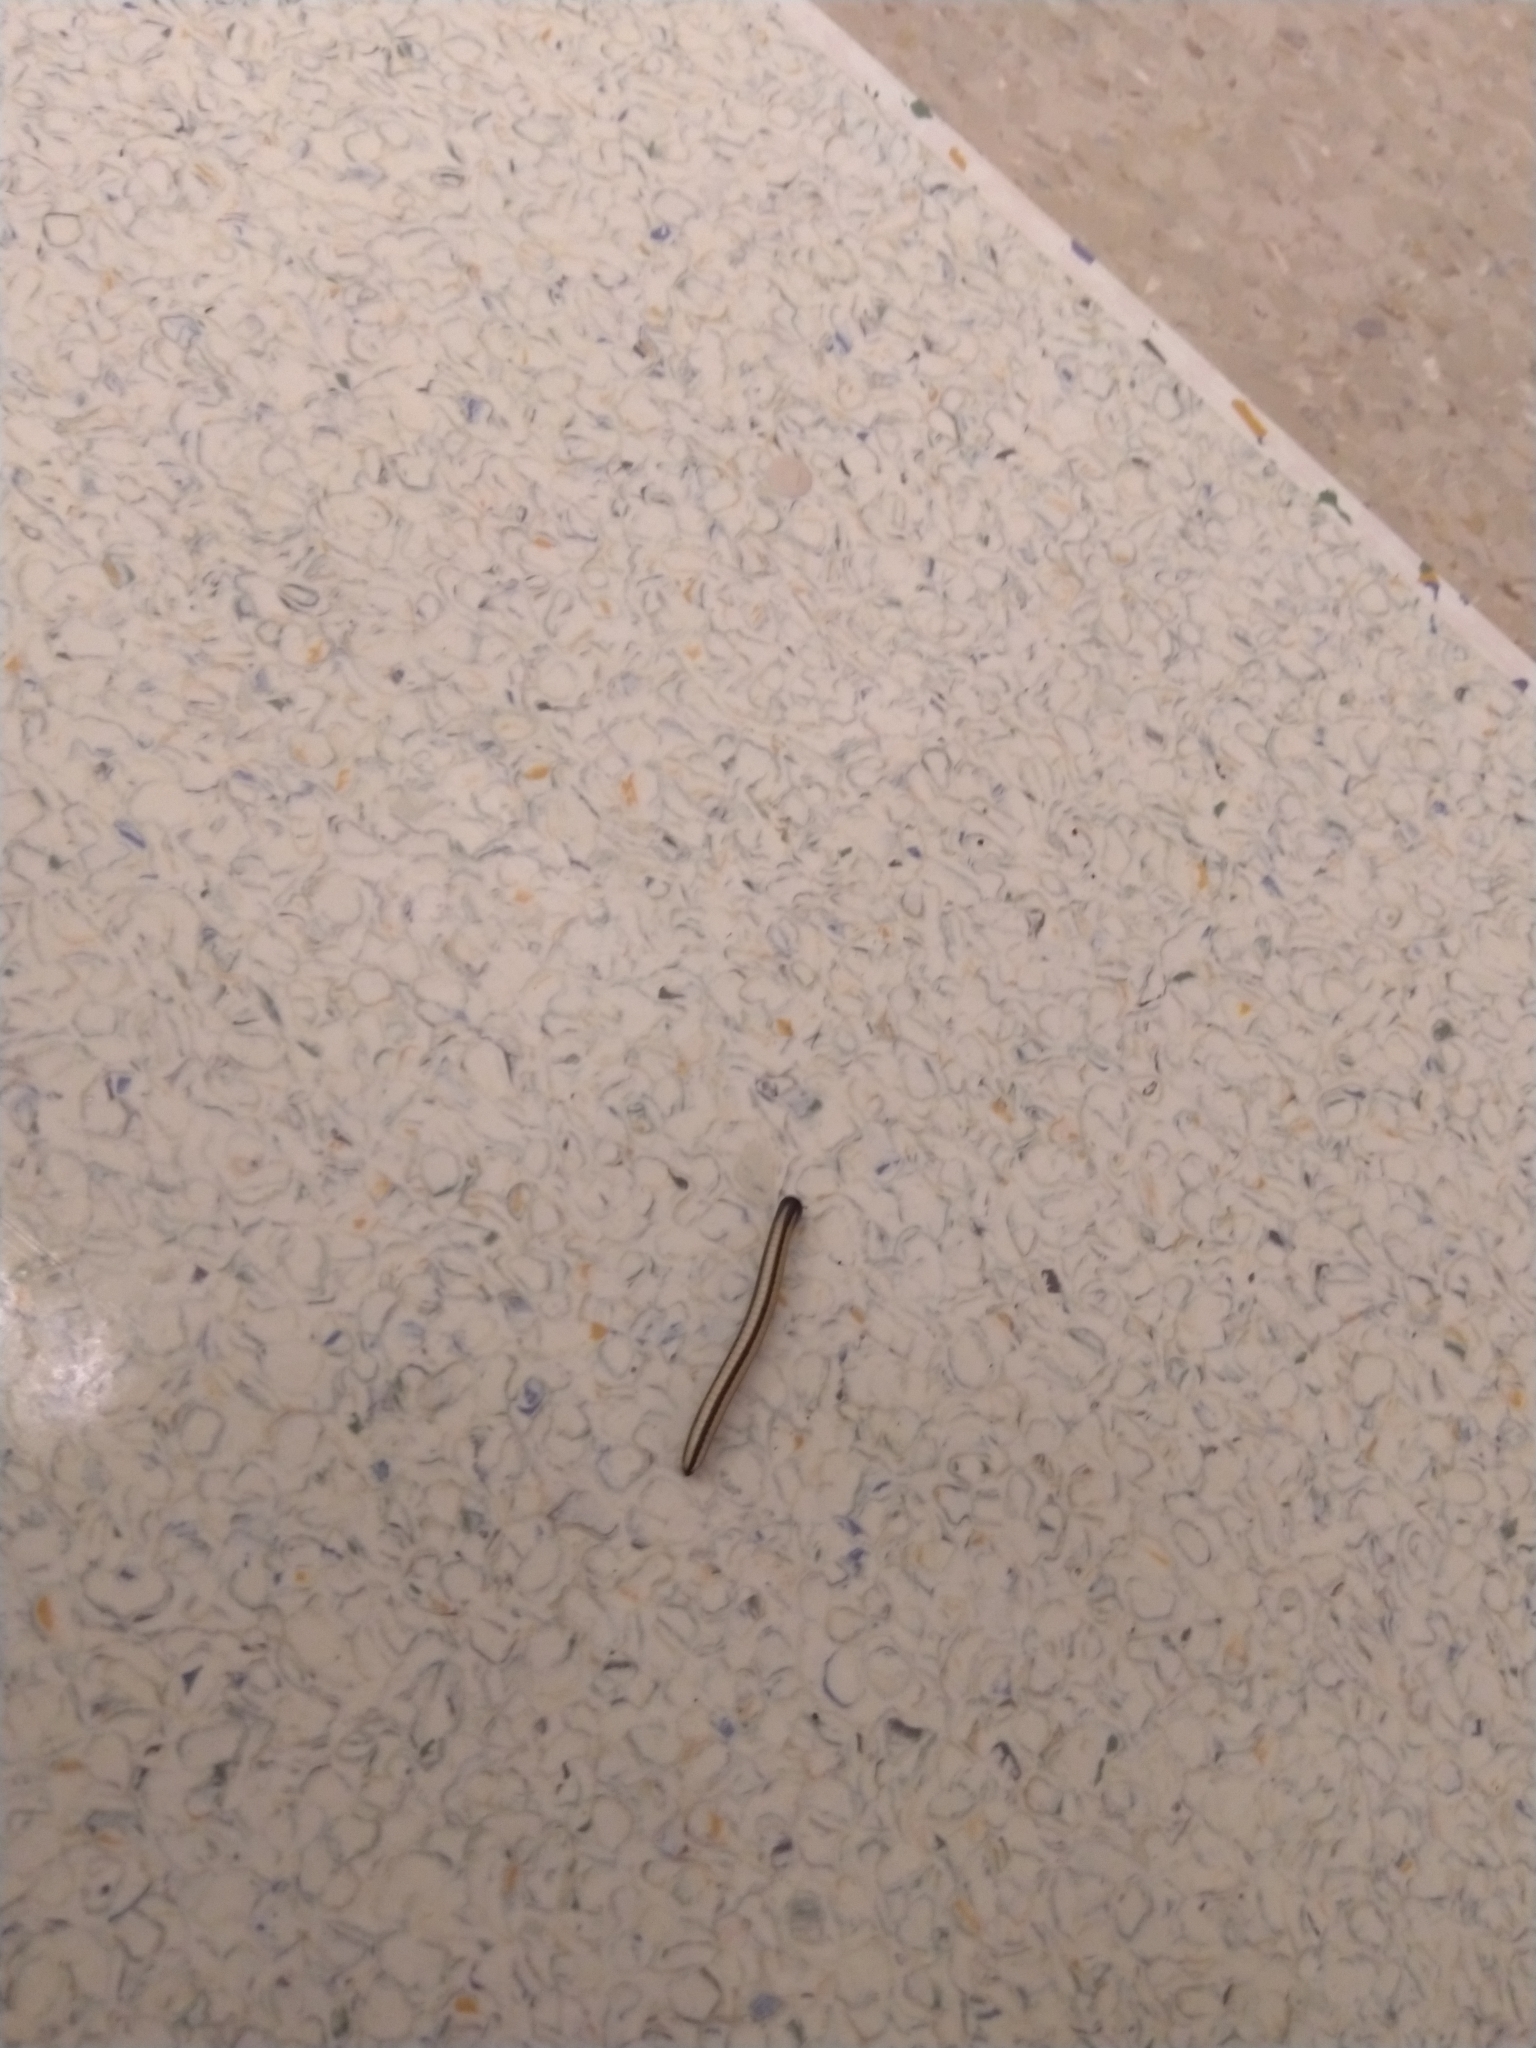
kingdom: Animalia
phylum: Arthropoda
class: Diplopoda
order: Spirobolida
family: Spirobolellidae
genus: Spirobolellus
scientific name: Spirobolellus immigrans
